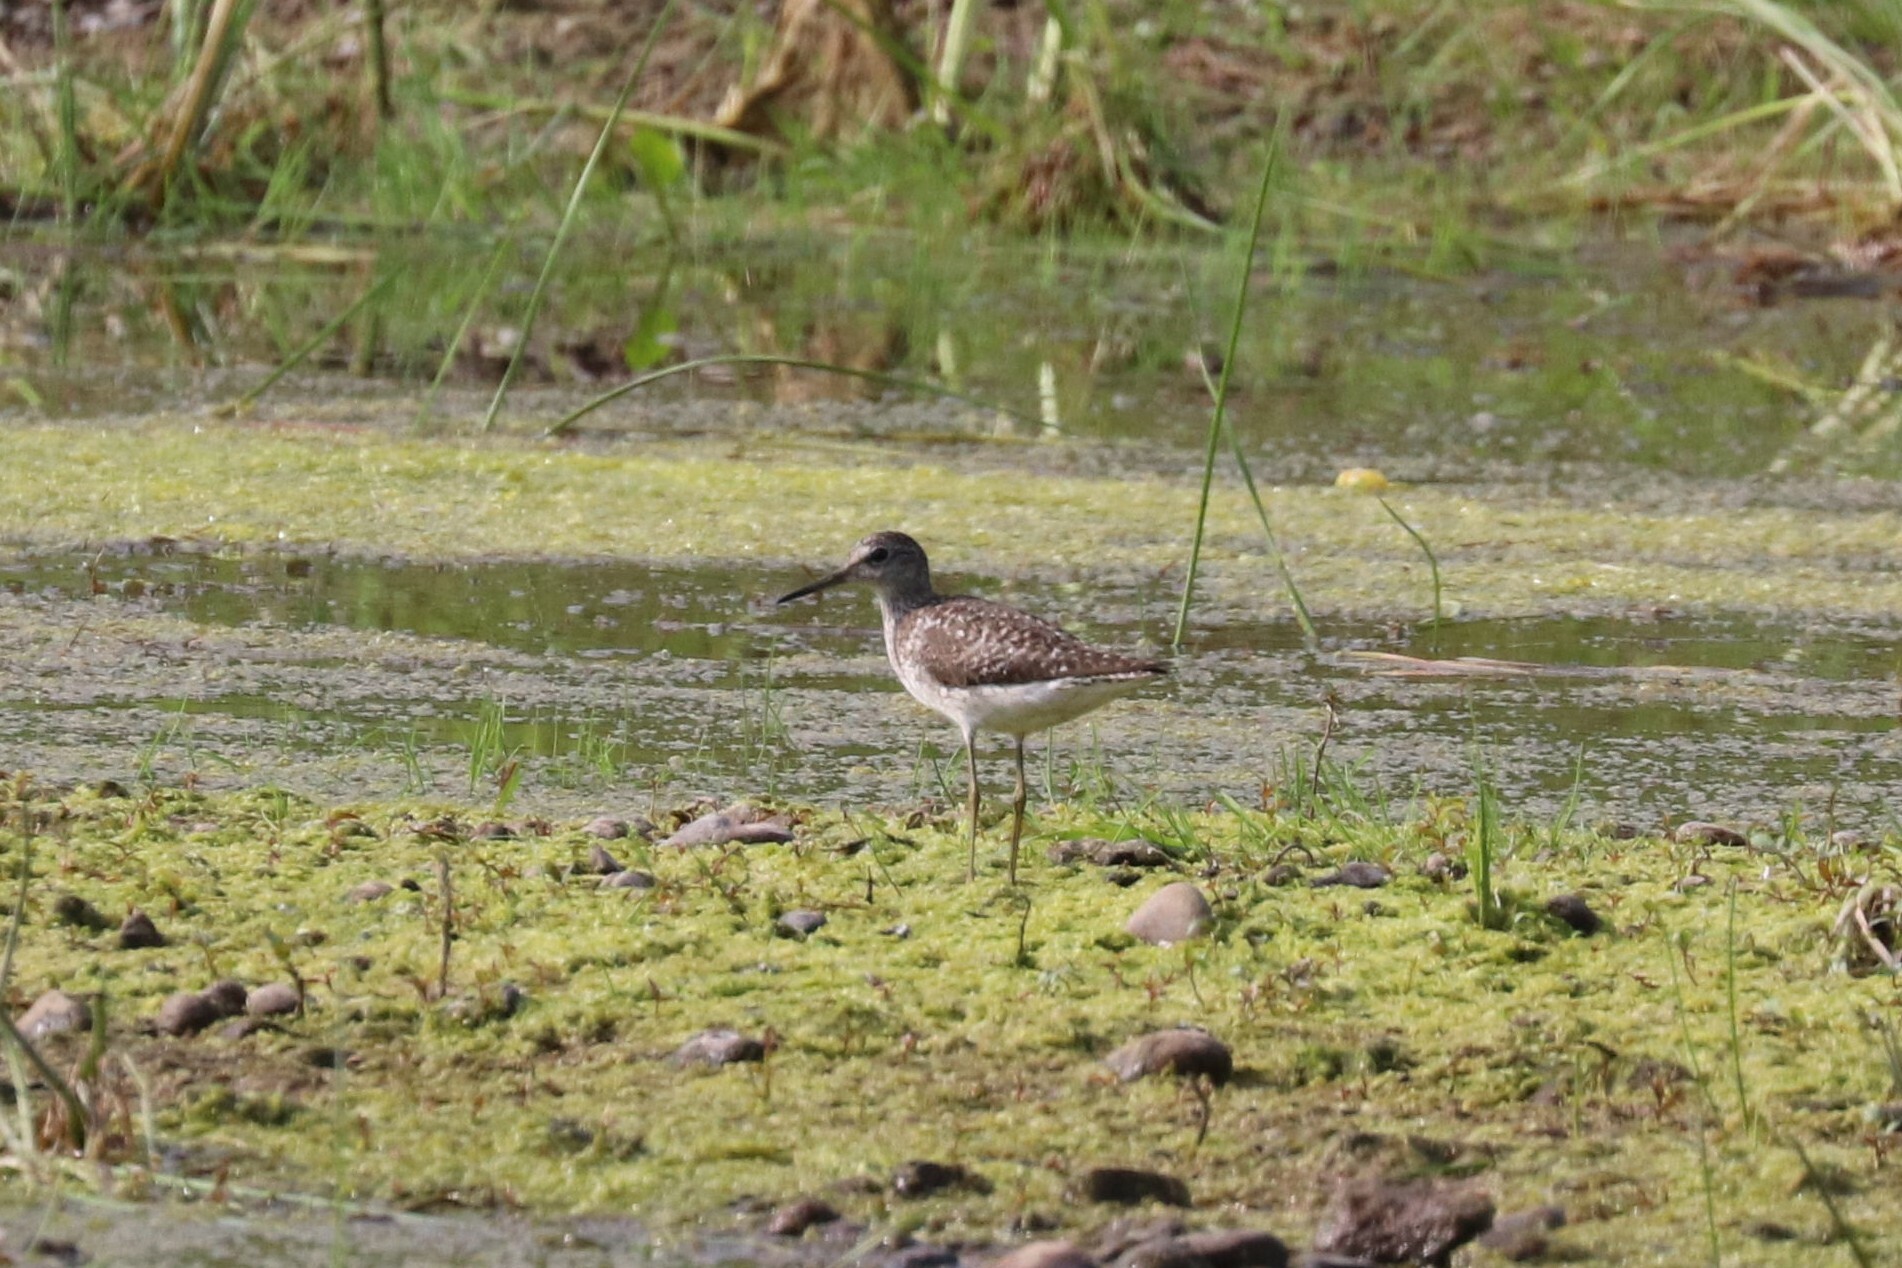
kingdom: Animalia
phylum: Chordata
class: Aves
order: Charadriiformes
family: Scolopacidae
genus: Tringa
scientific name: Tringa glareola
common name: Wood sandpiper
